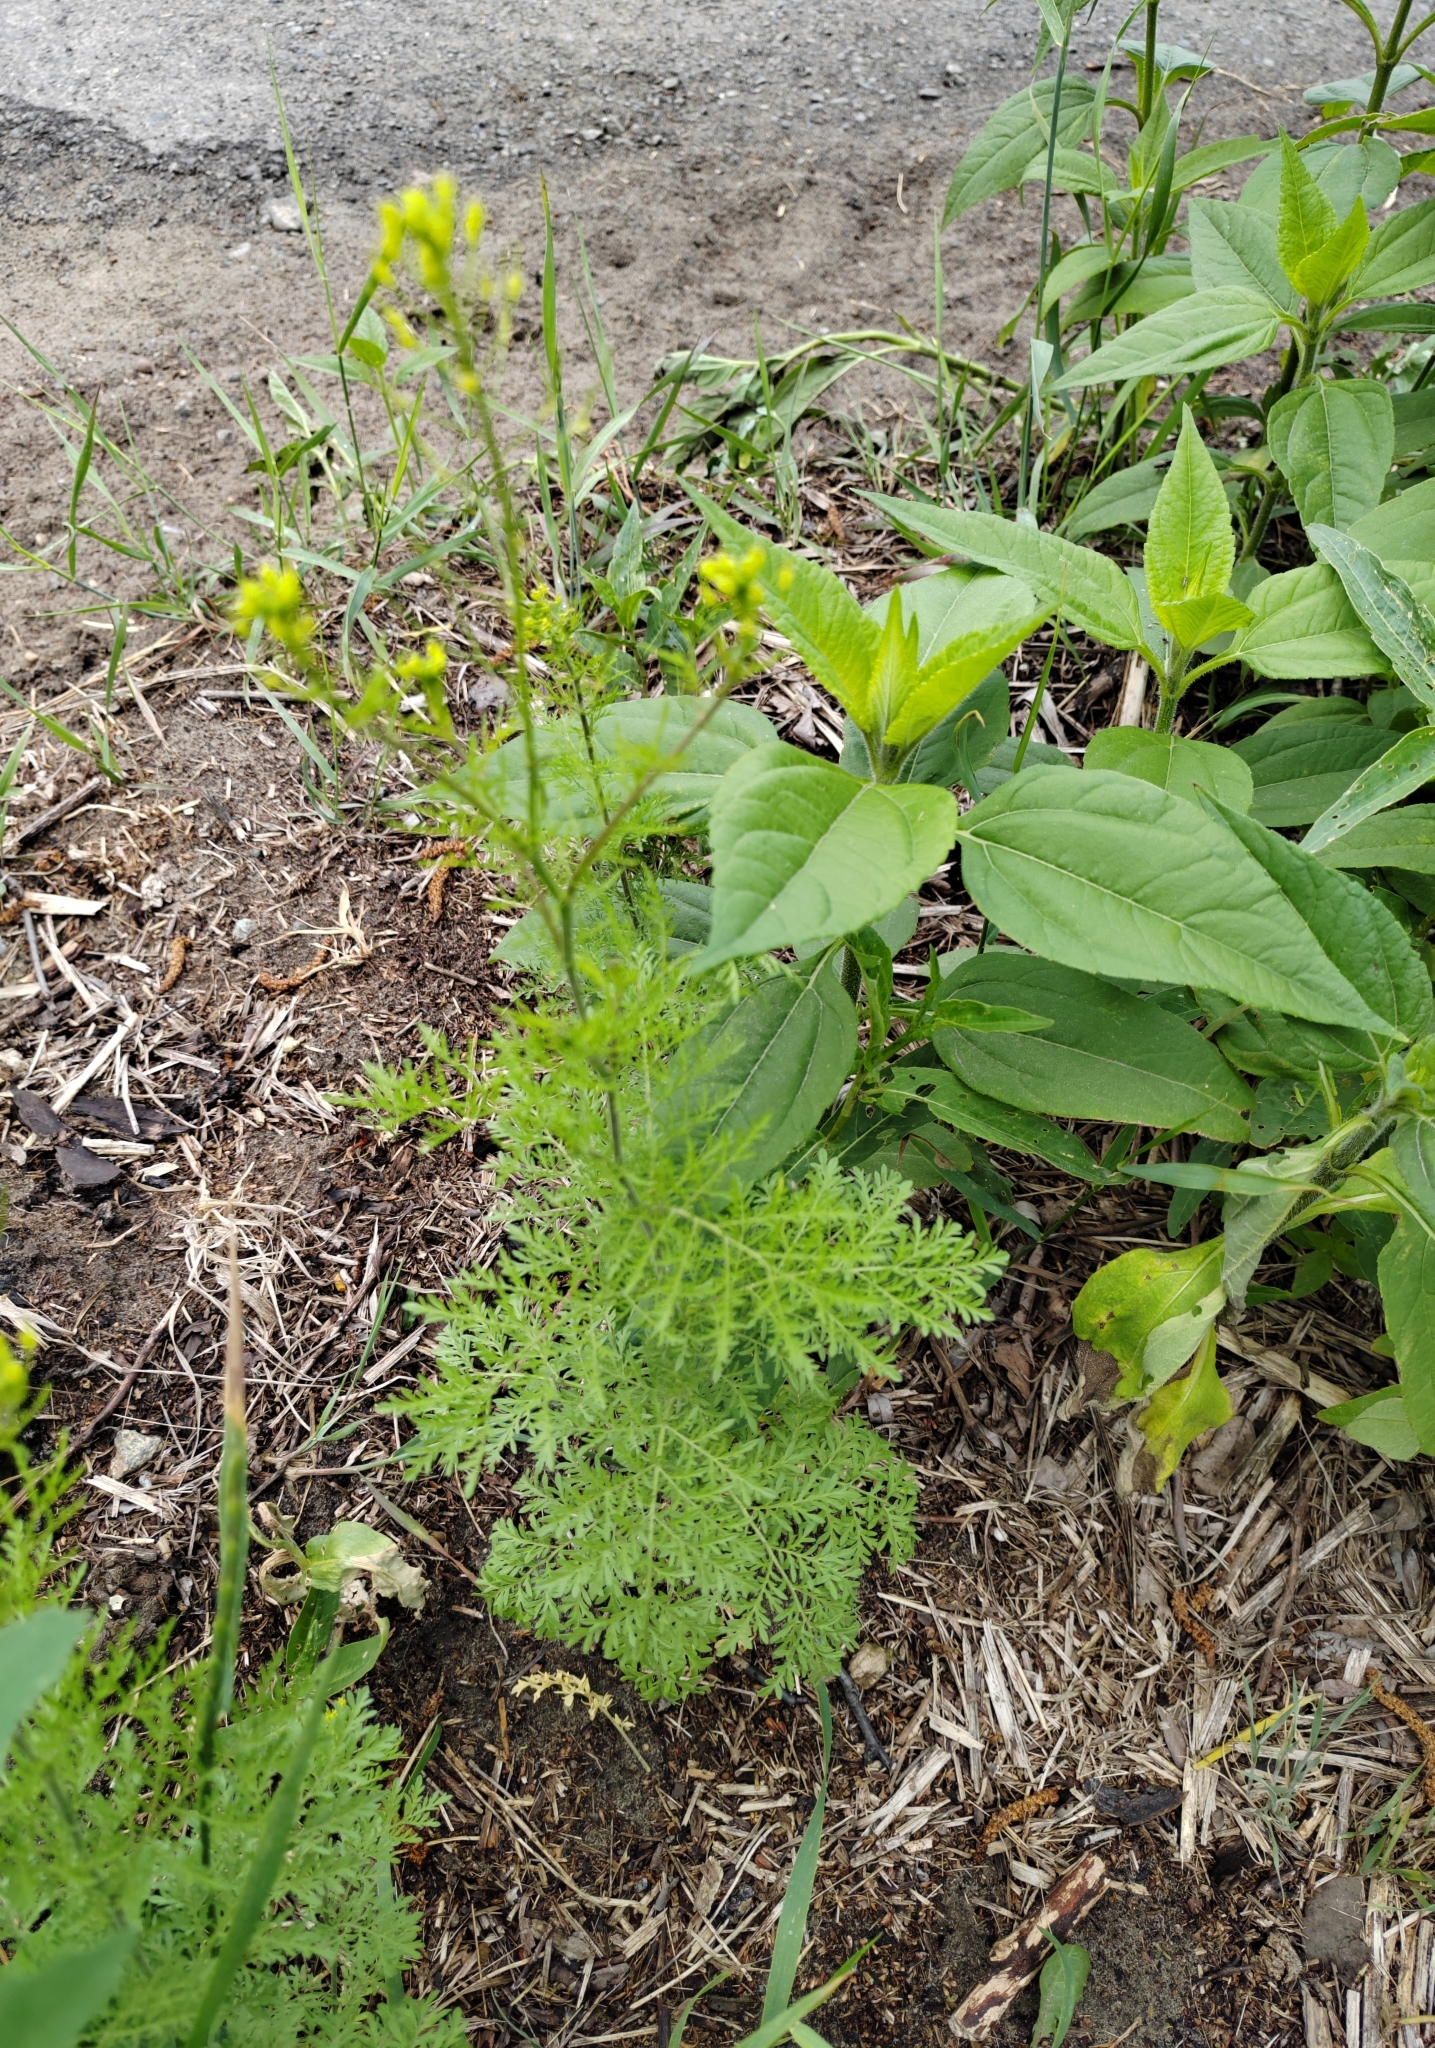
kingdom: Plantae
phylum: Tracheophyta
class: Magnoliopsida
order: Brassicales
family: Brassicaceae
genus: Descurainia
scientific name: Descurainia sophia
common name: Flixweed
